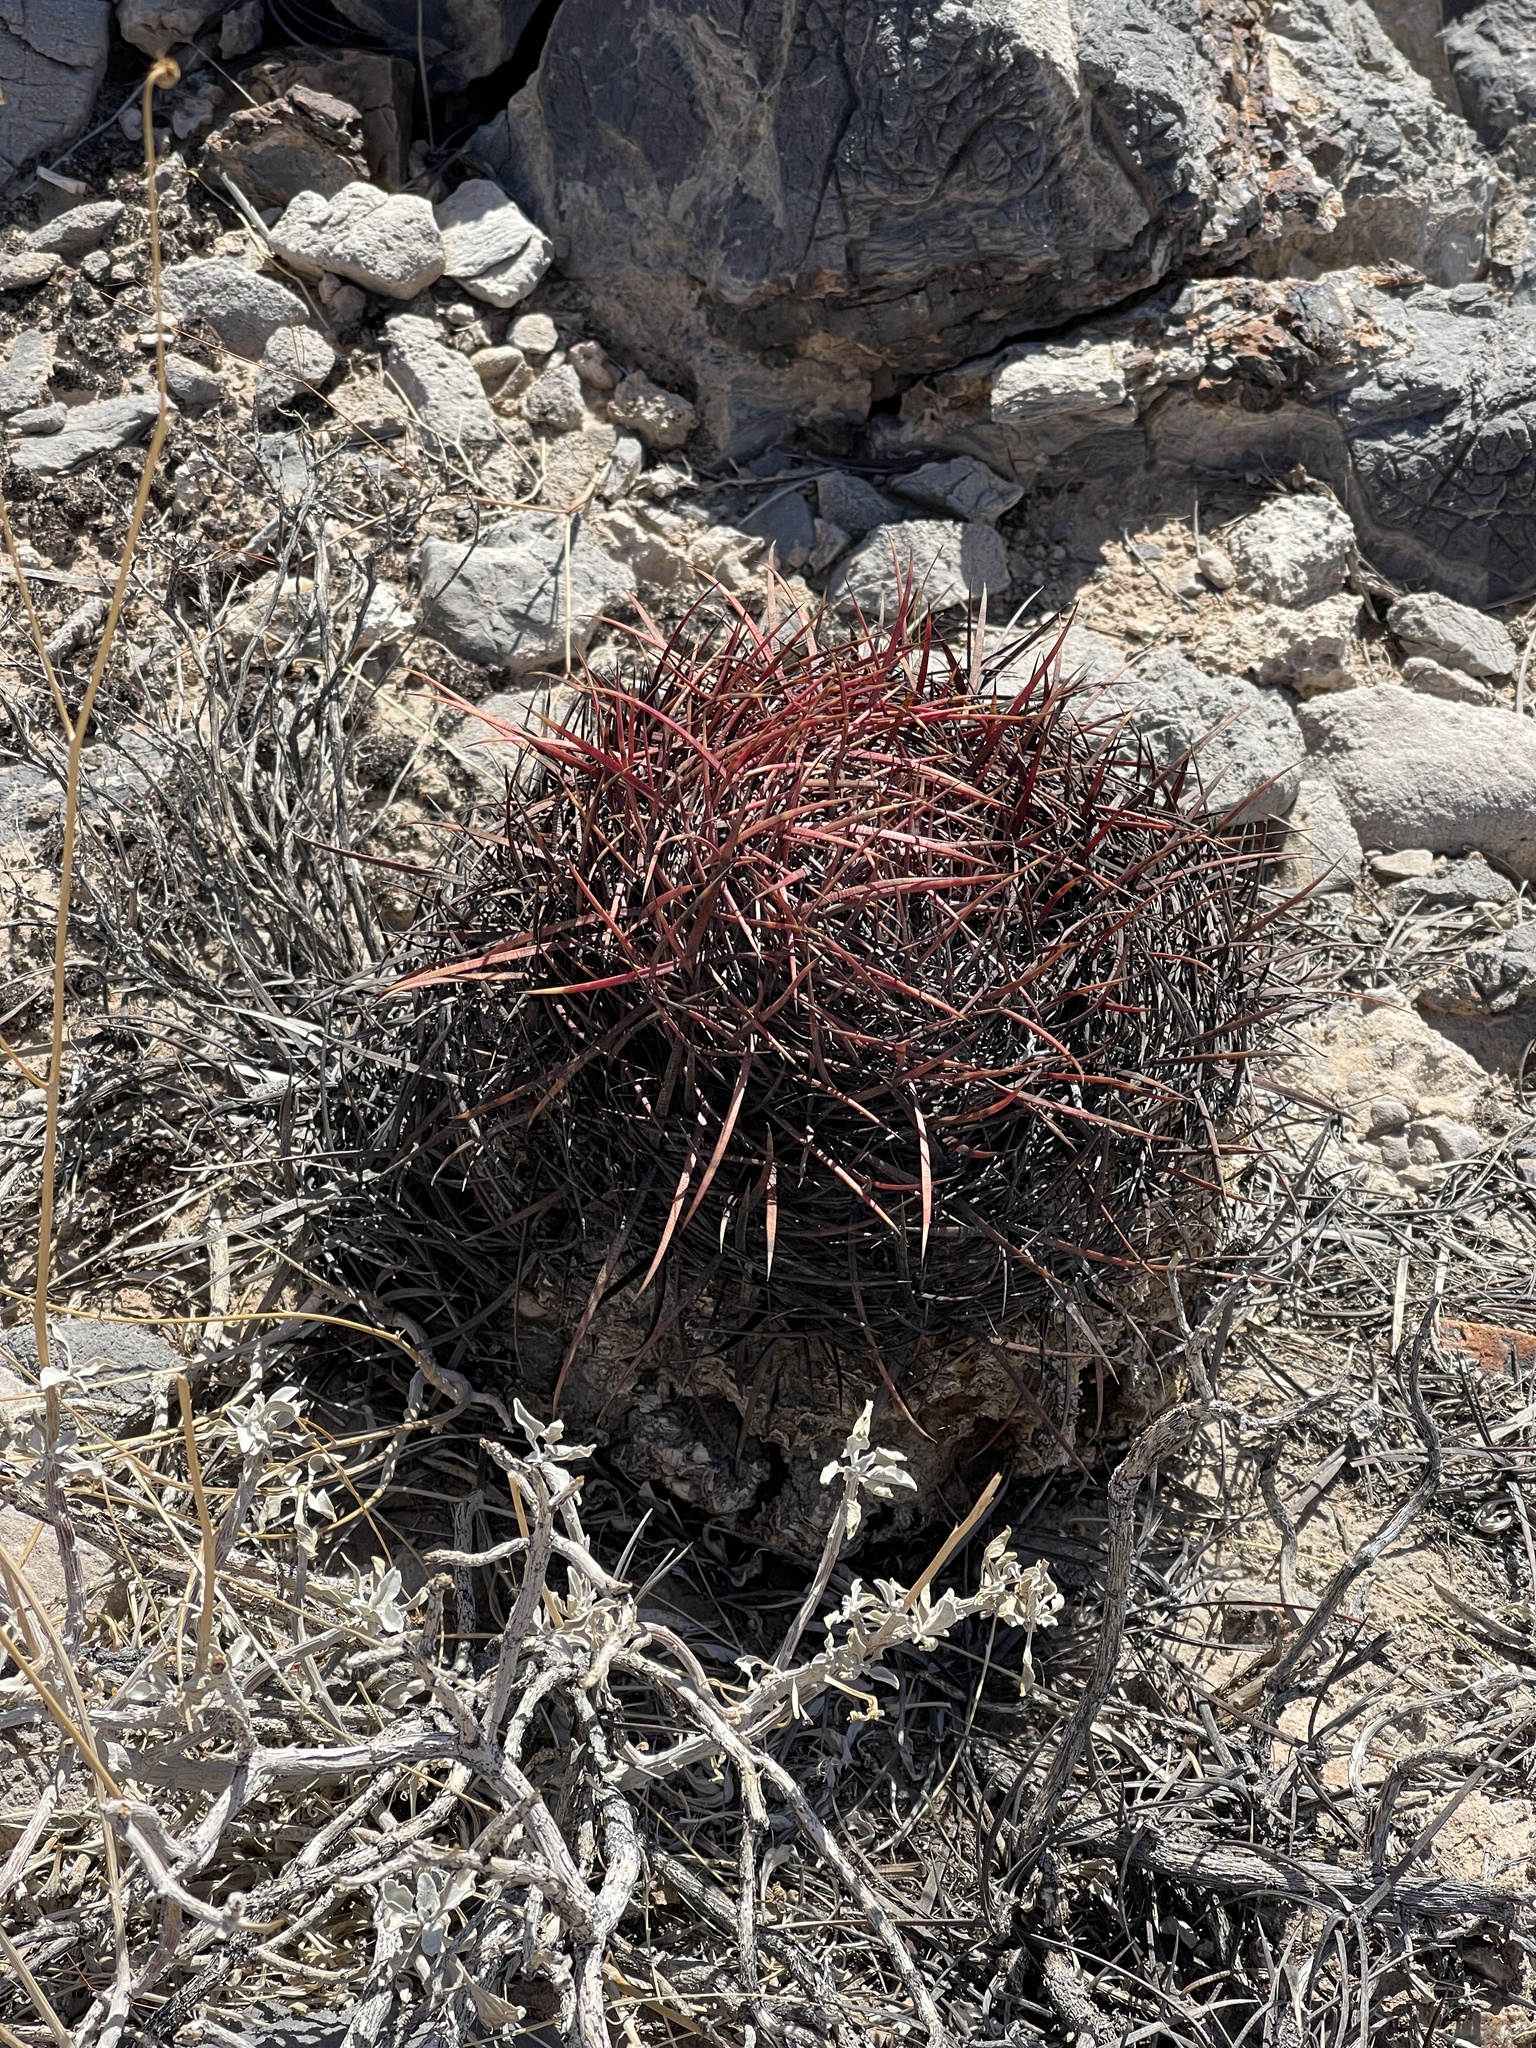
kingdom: Plantae
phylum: Tracheophyta
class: Magnoliopsida
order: Caryophyllales
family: Cactaceae
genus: Ferocactus
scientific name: Ferocactus cylindraceus
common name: California barrel cactus
